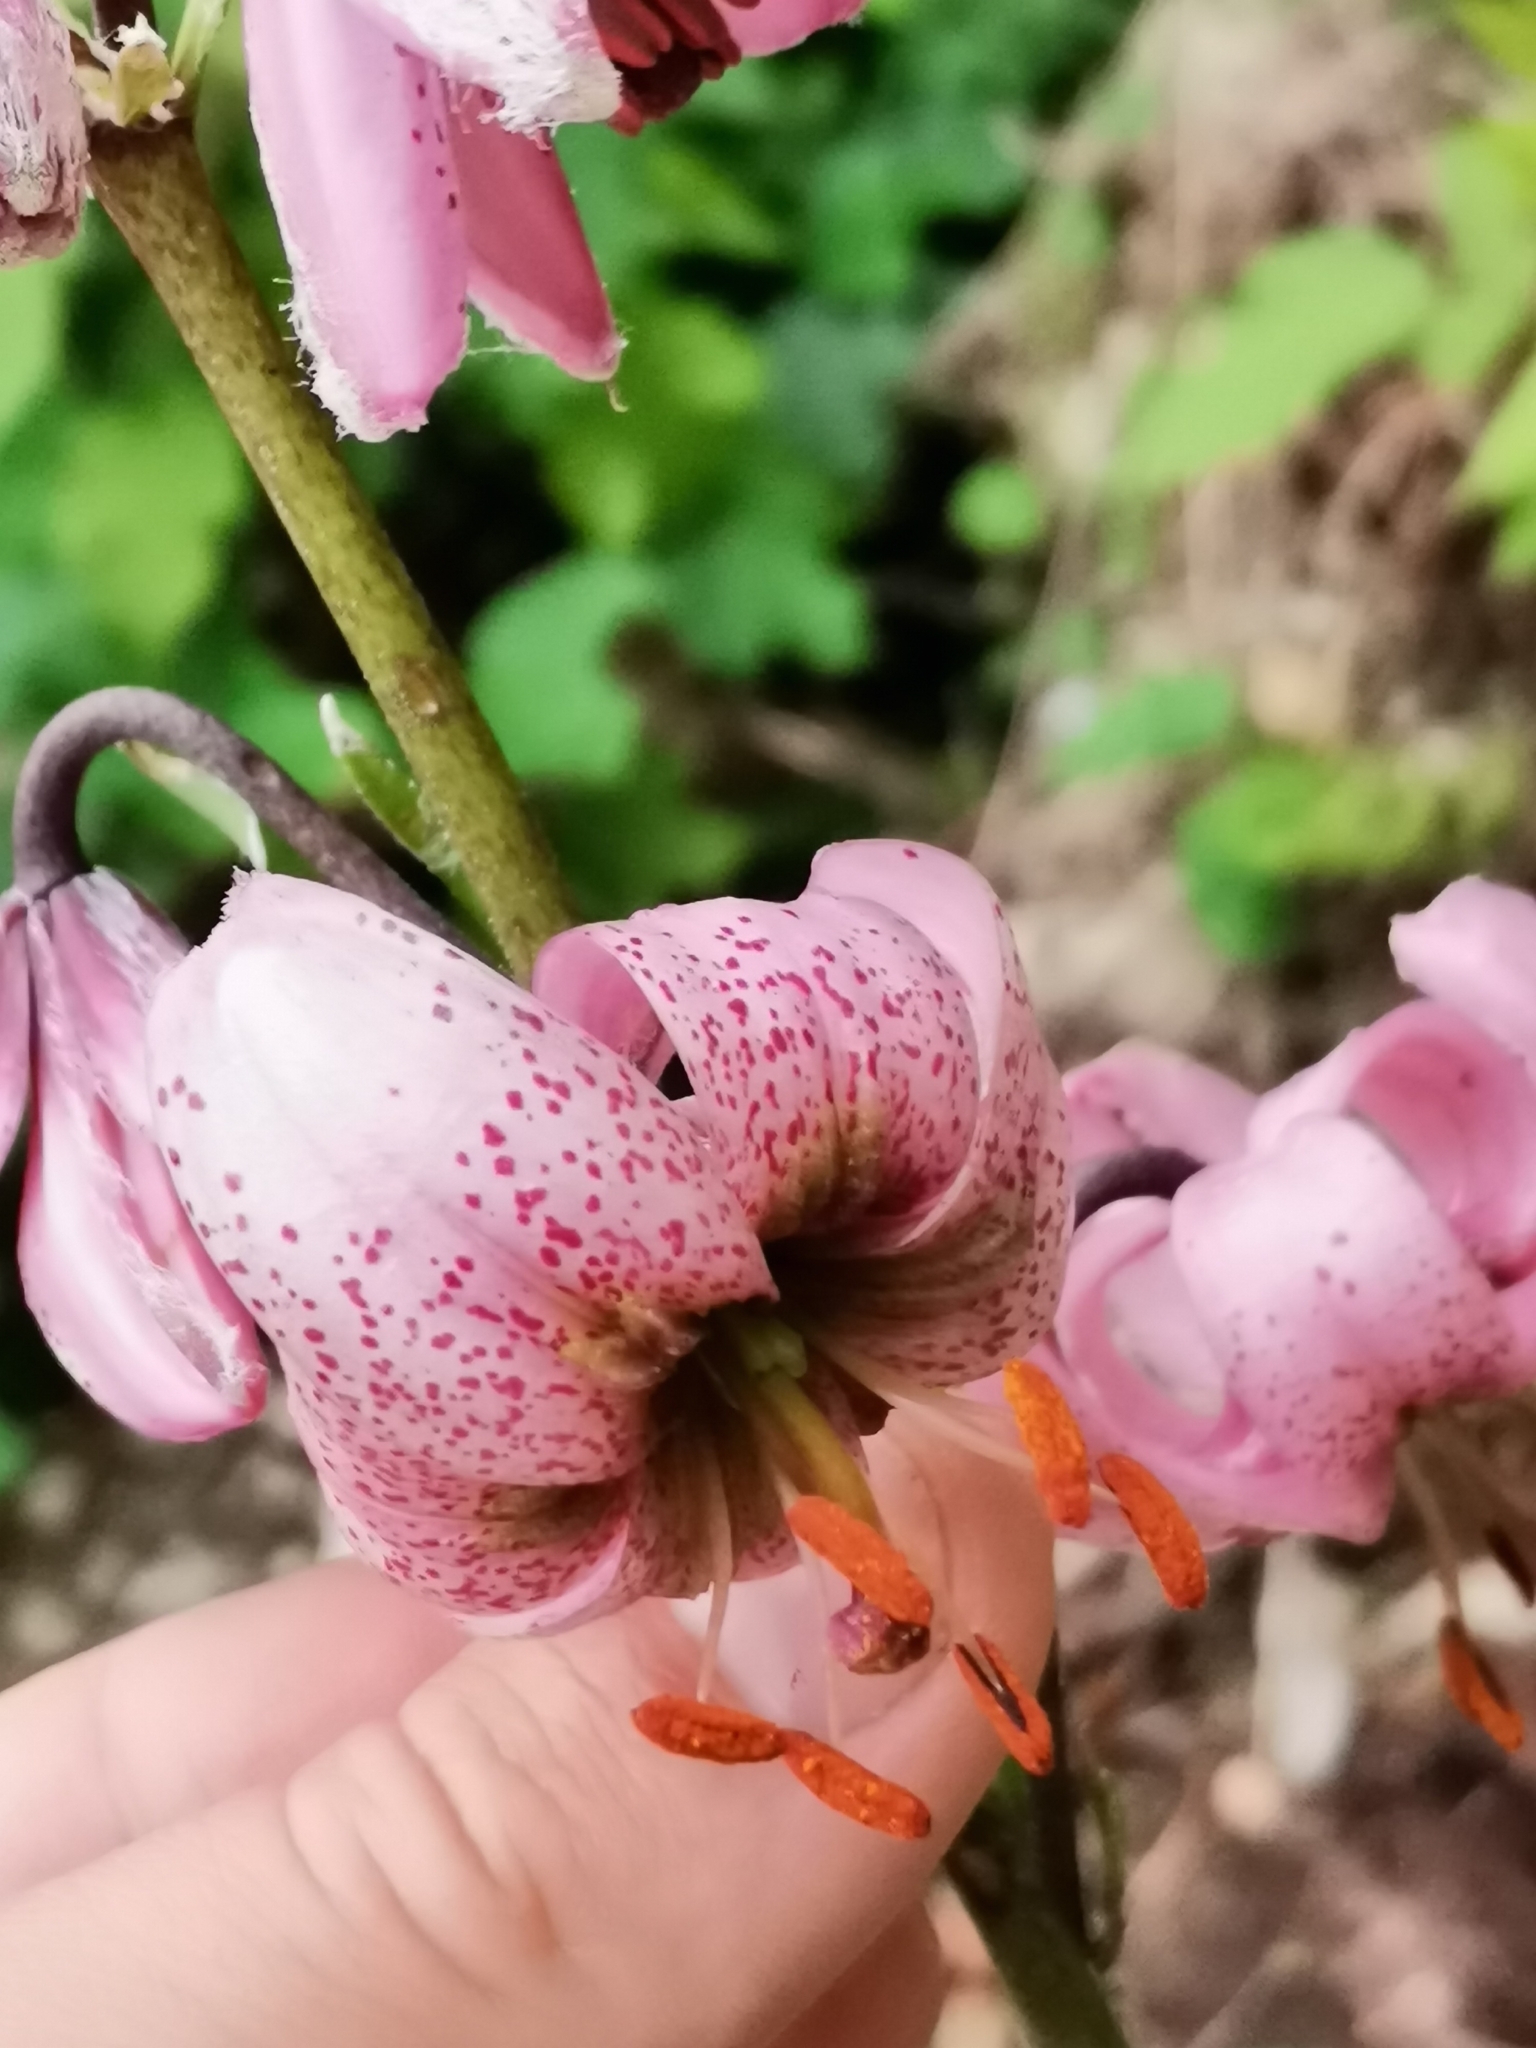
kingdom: Plantae
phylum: Tracheophyta
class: Liliopsida
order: Liliales
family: Liliaceae
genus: Lilium
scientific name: Lilium martagon
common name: Martagon lily
